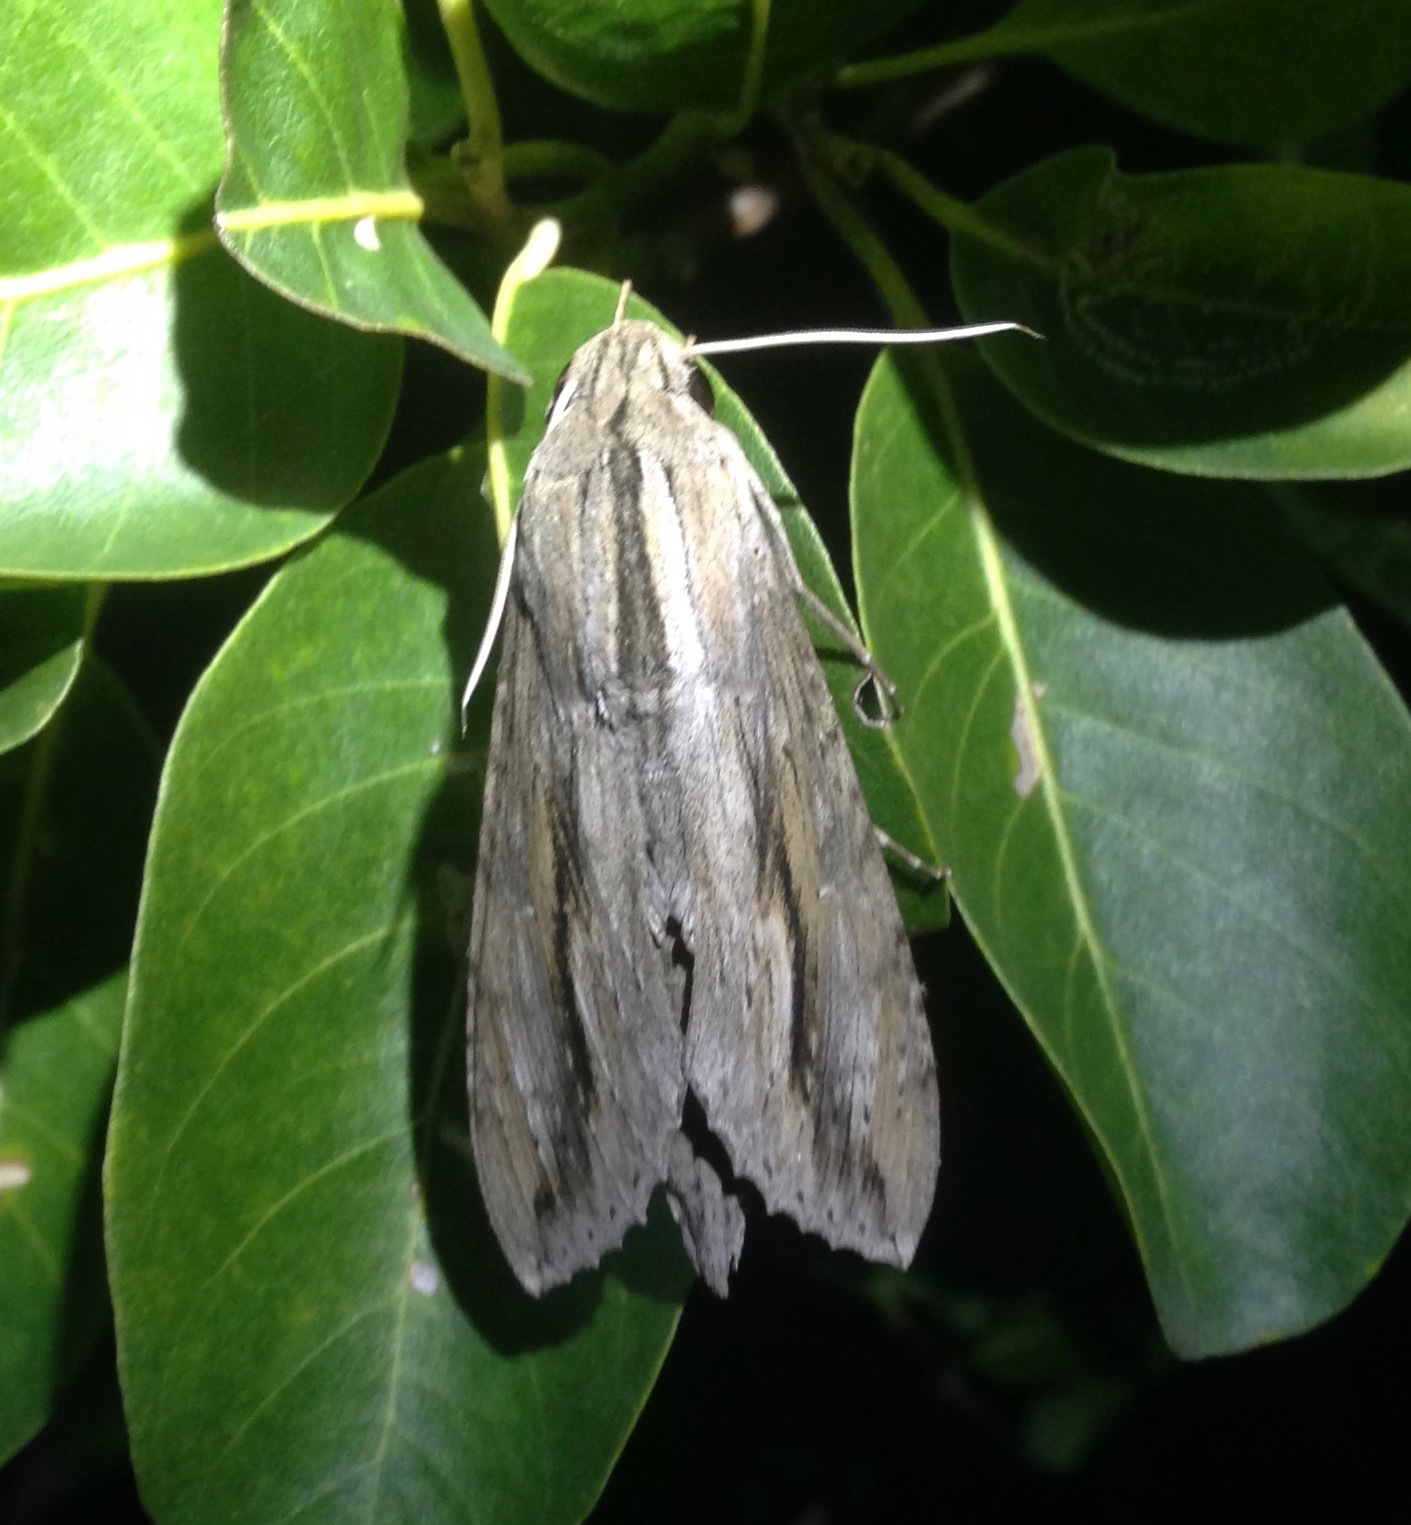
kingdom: Animalia
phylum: Arthropoda
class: Insecta
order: Lepidoptera
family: Sphingidae
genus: Erinnyis
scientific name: Erinnyis ello
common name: Ello sphinx
